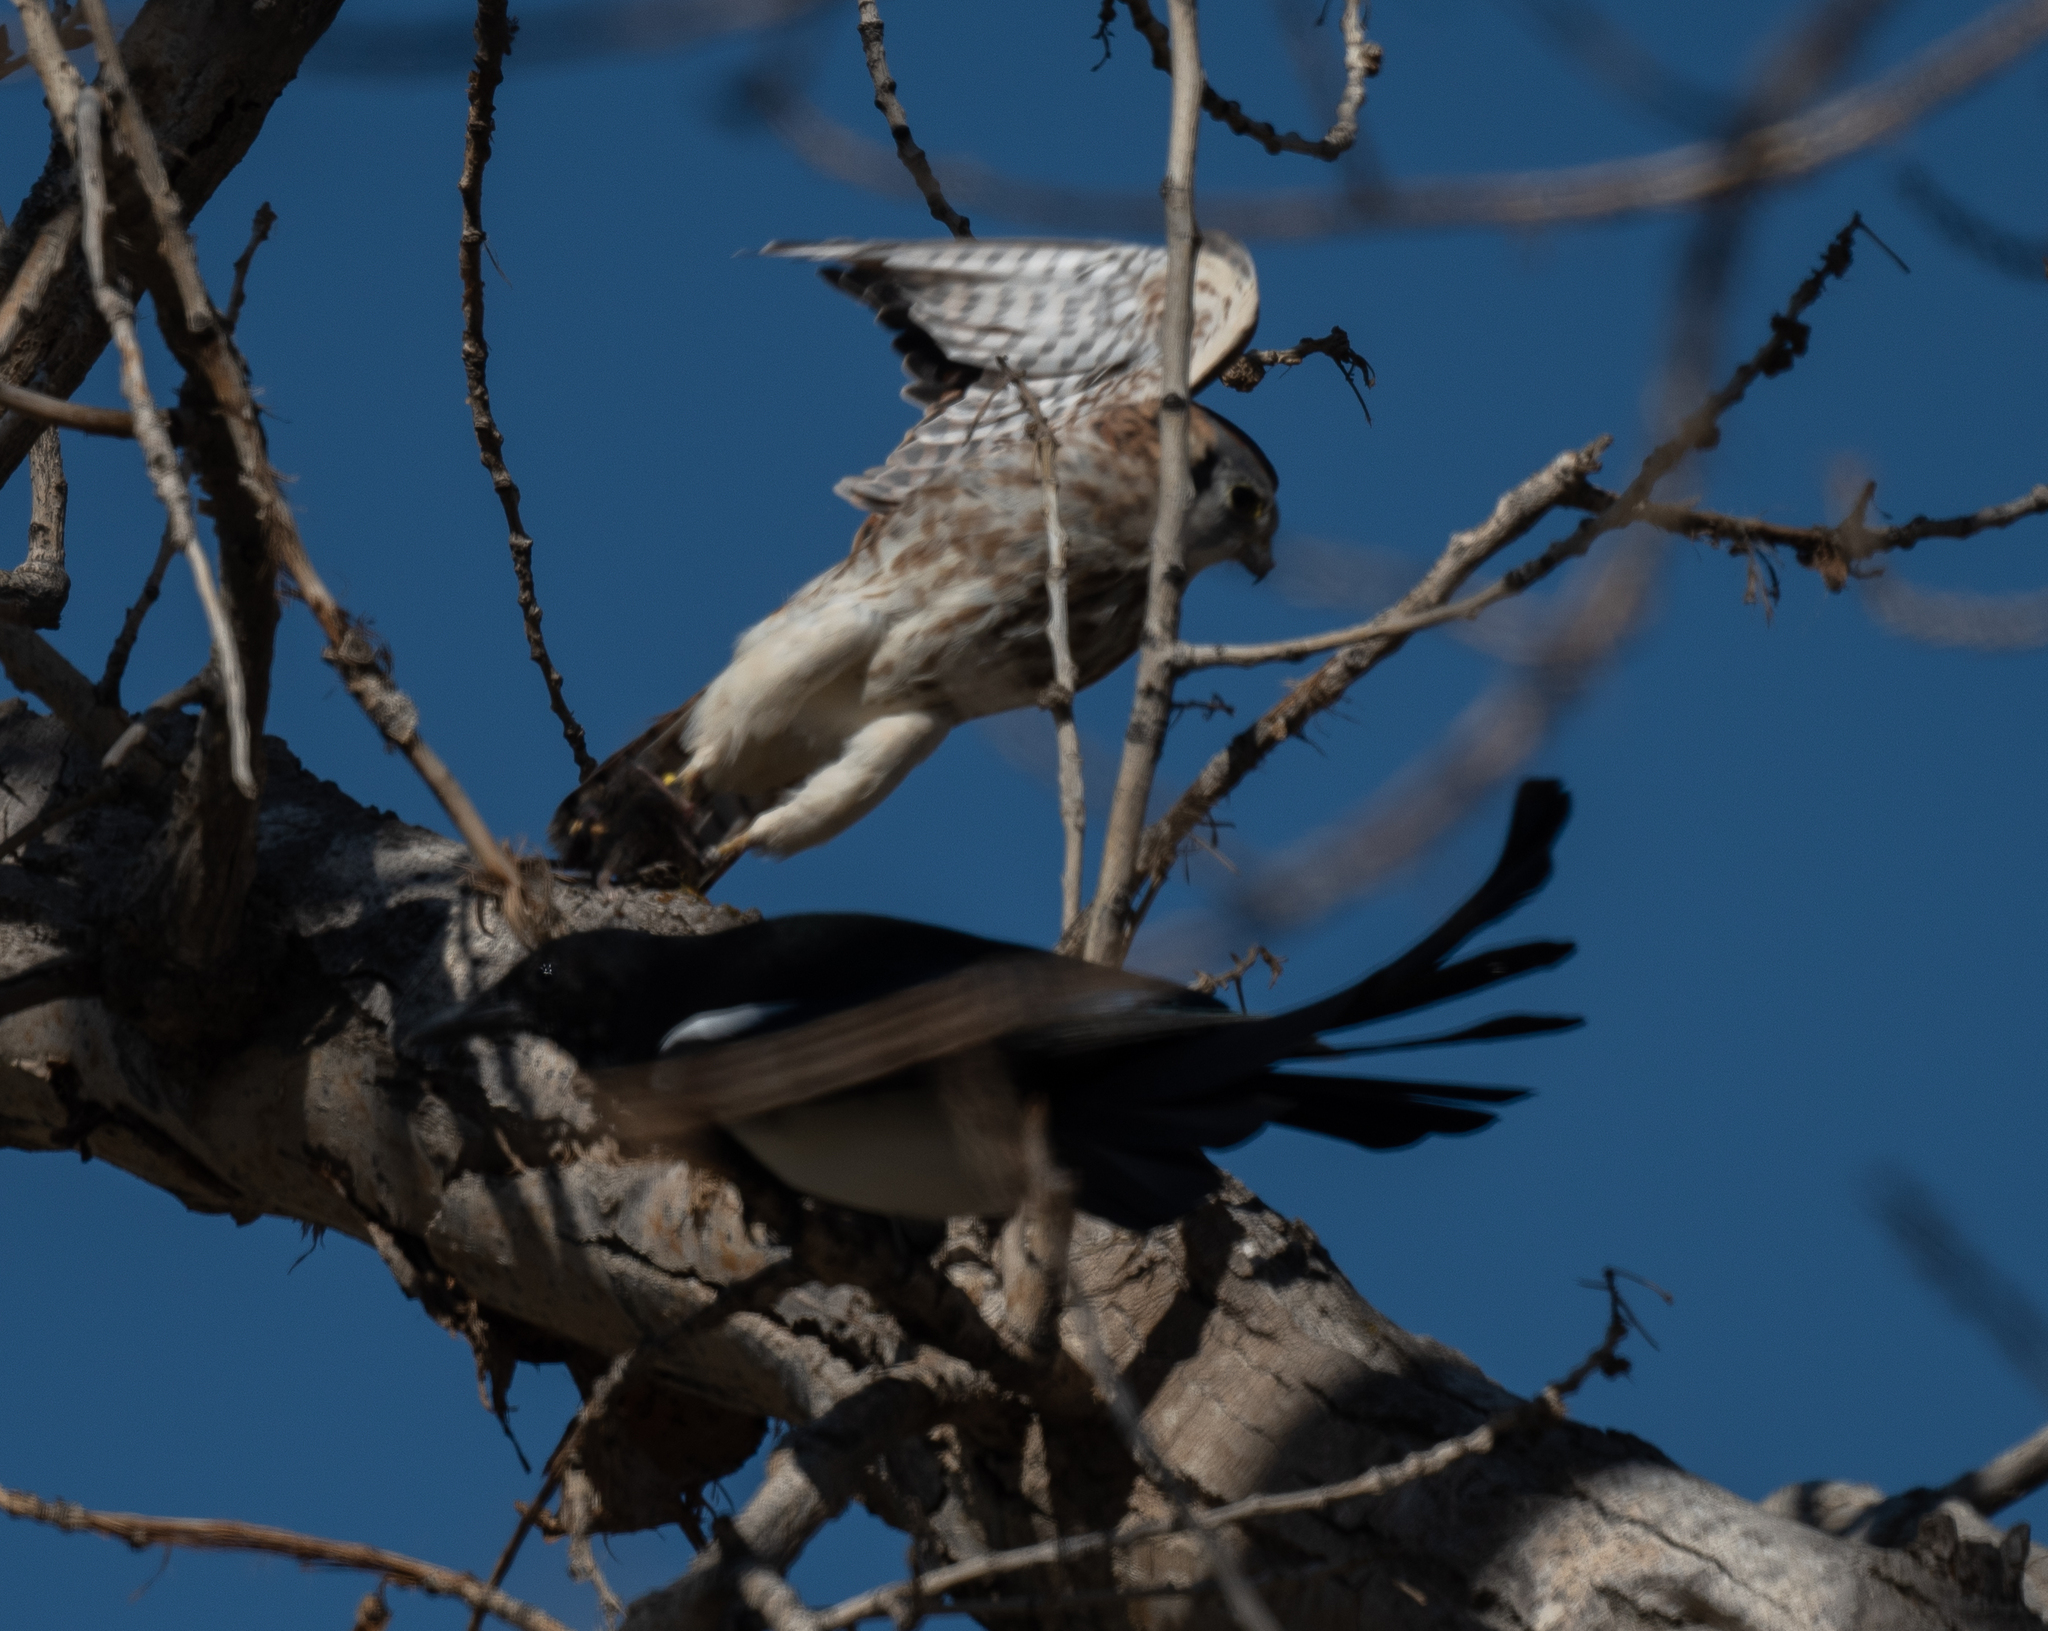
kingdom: Animalia
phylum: Chordata
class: Aves
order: Passeriformes
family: Corvidae
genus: Pica
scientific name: Pica hudsonia
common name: Black-billed magpie
